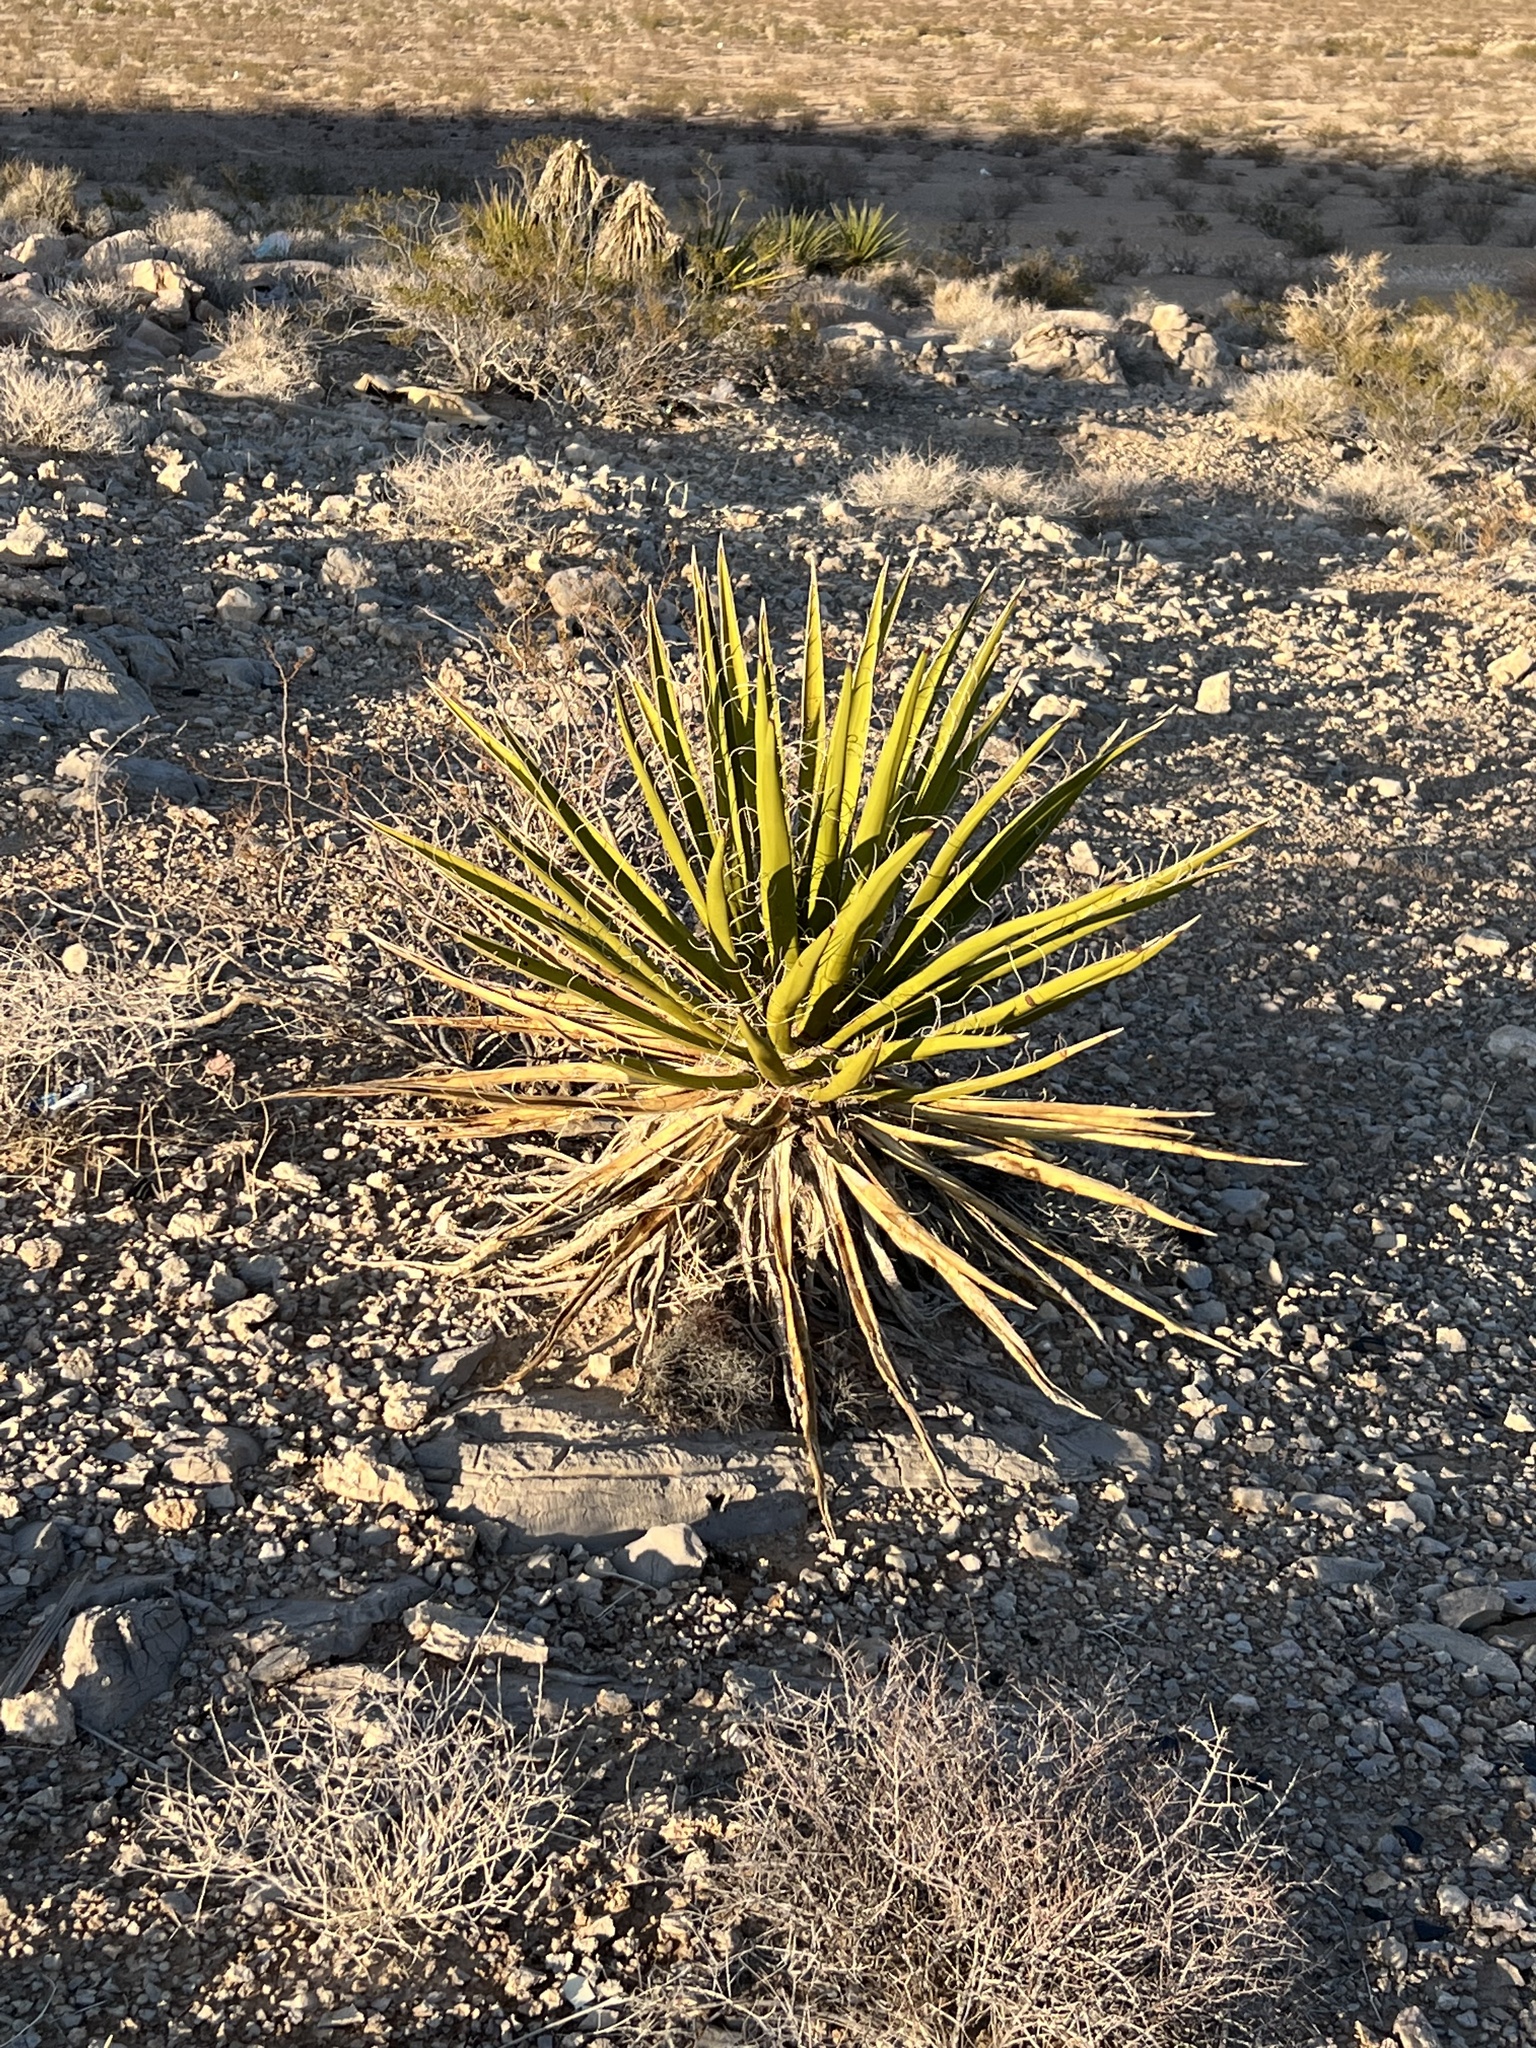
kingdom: Plantae
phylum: Tracheophyta
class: Liliopsida
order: Asparagales
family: Asparagaceae
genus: Yucca
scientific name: Yucca schidigera
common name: Mojave yucca
